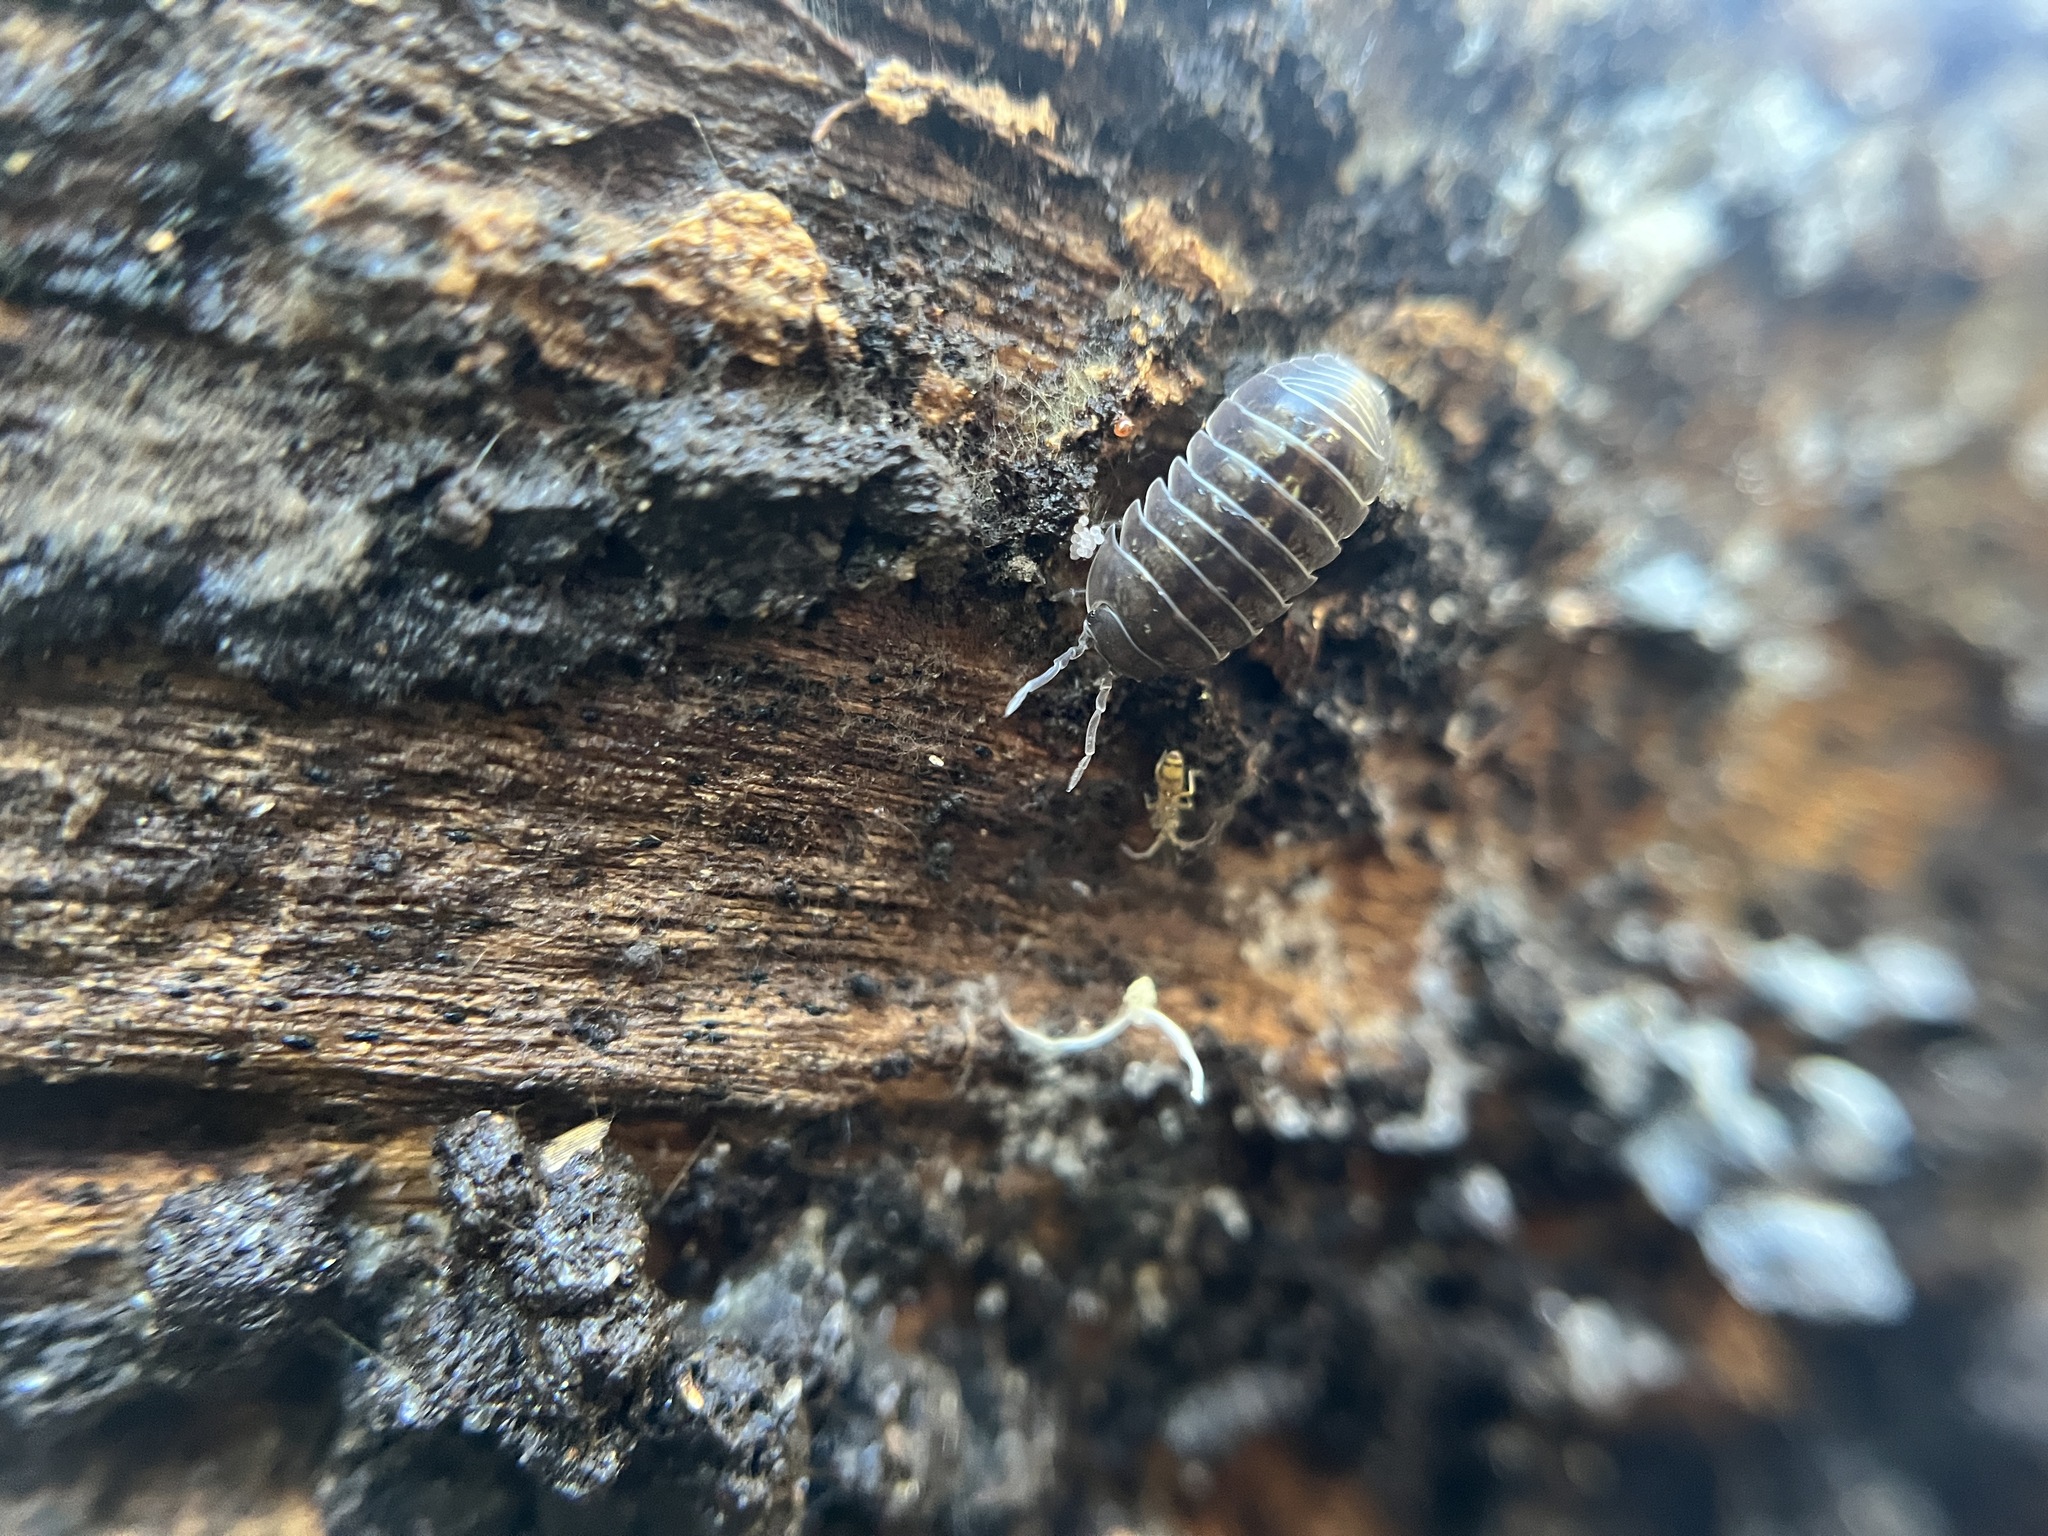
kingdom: Animalia
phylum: Arthropoda
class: Malacostraca
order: Isopoda
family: Armadillidiidae
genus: Armadillidium
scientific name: Armadillidium vulgare
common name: Common pill woodlouse
